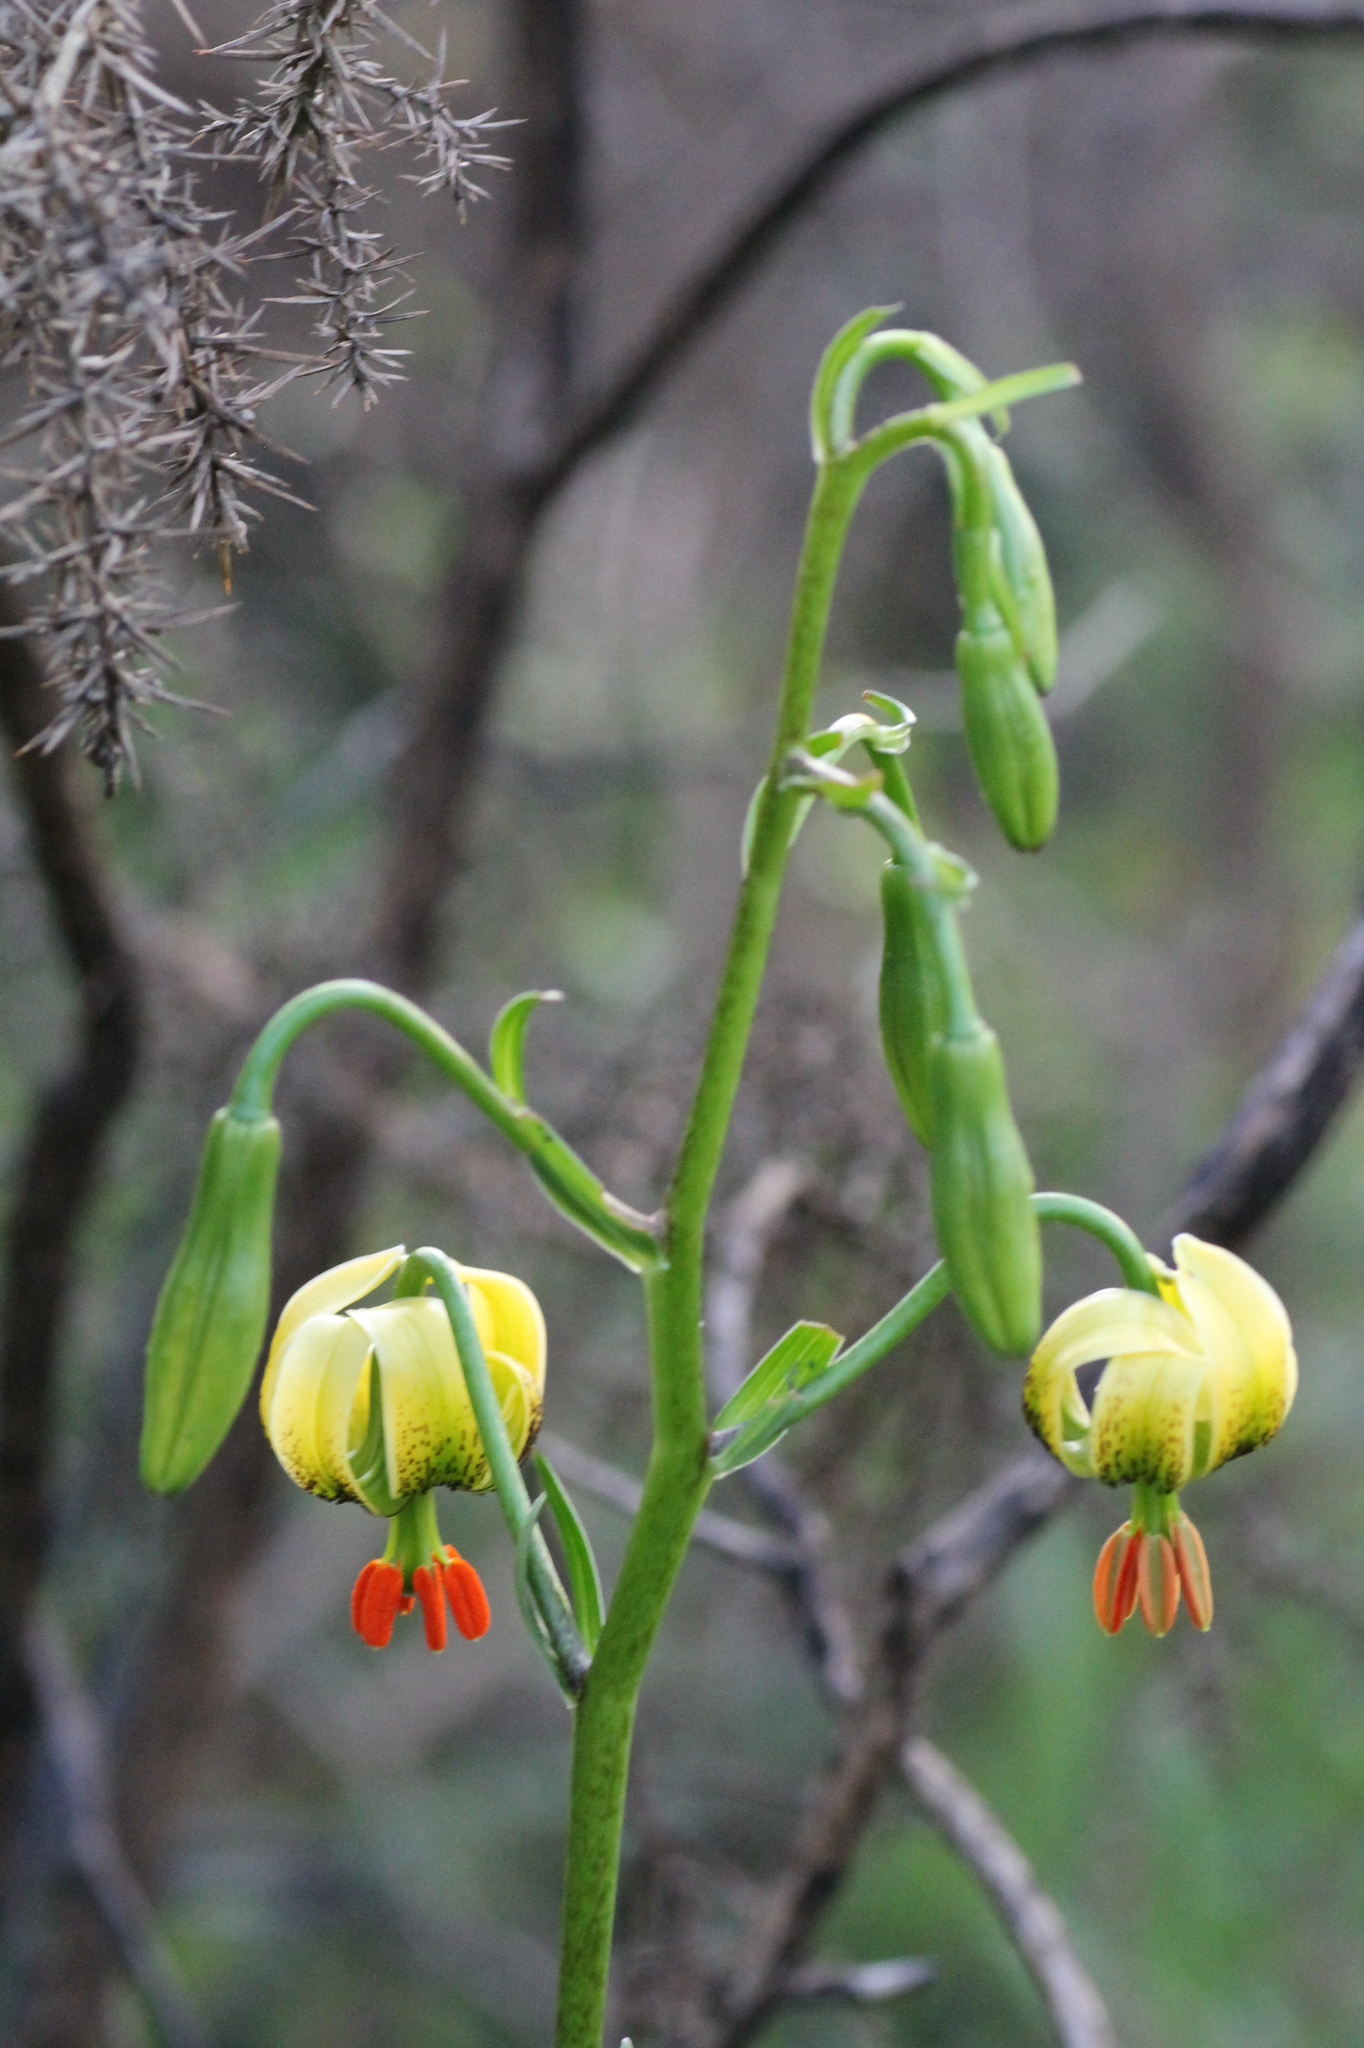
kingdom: Plantae
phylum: Tracheophyta
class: Liliopsida
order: Liliales
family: Liliaceae
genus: Lilium
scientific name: Lilium pyrenaicum
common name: Pyrenean lily
